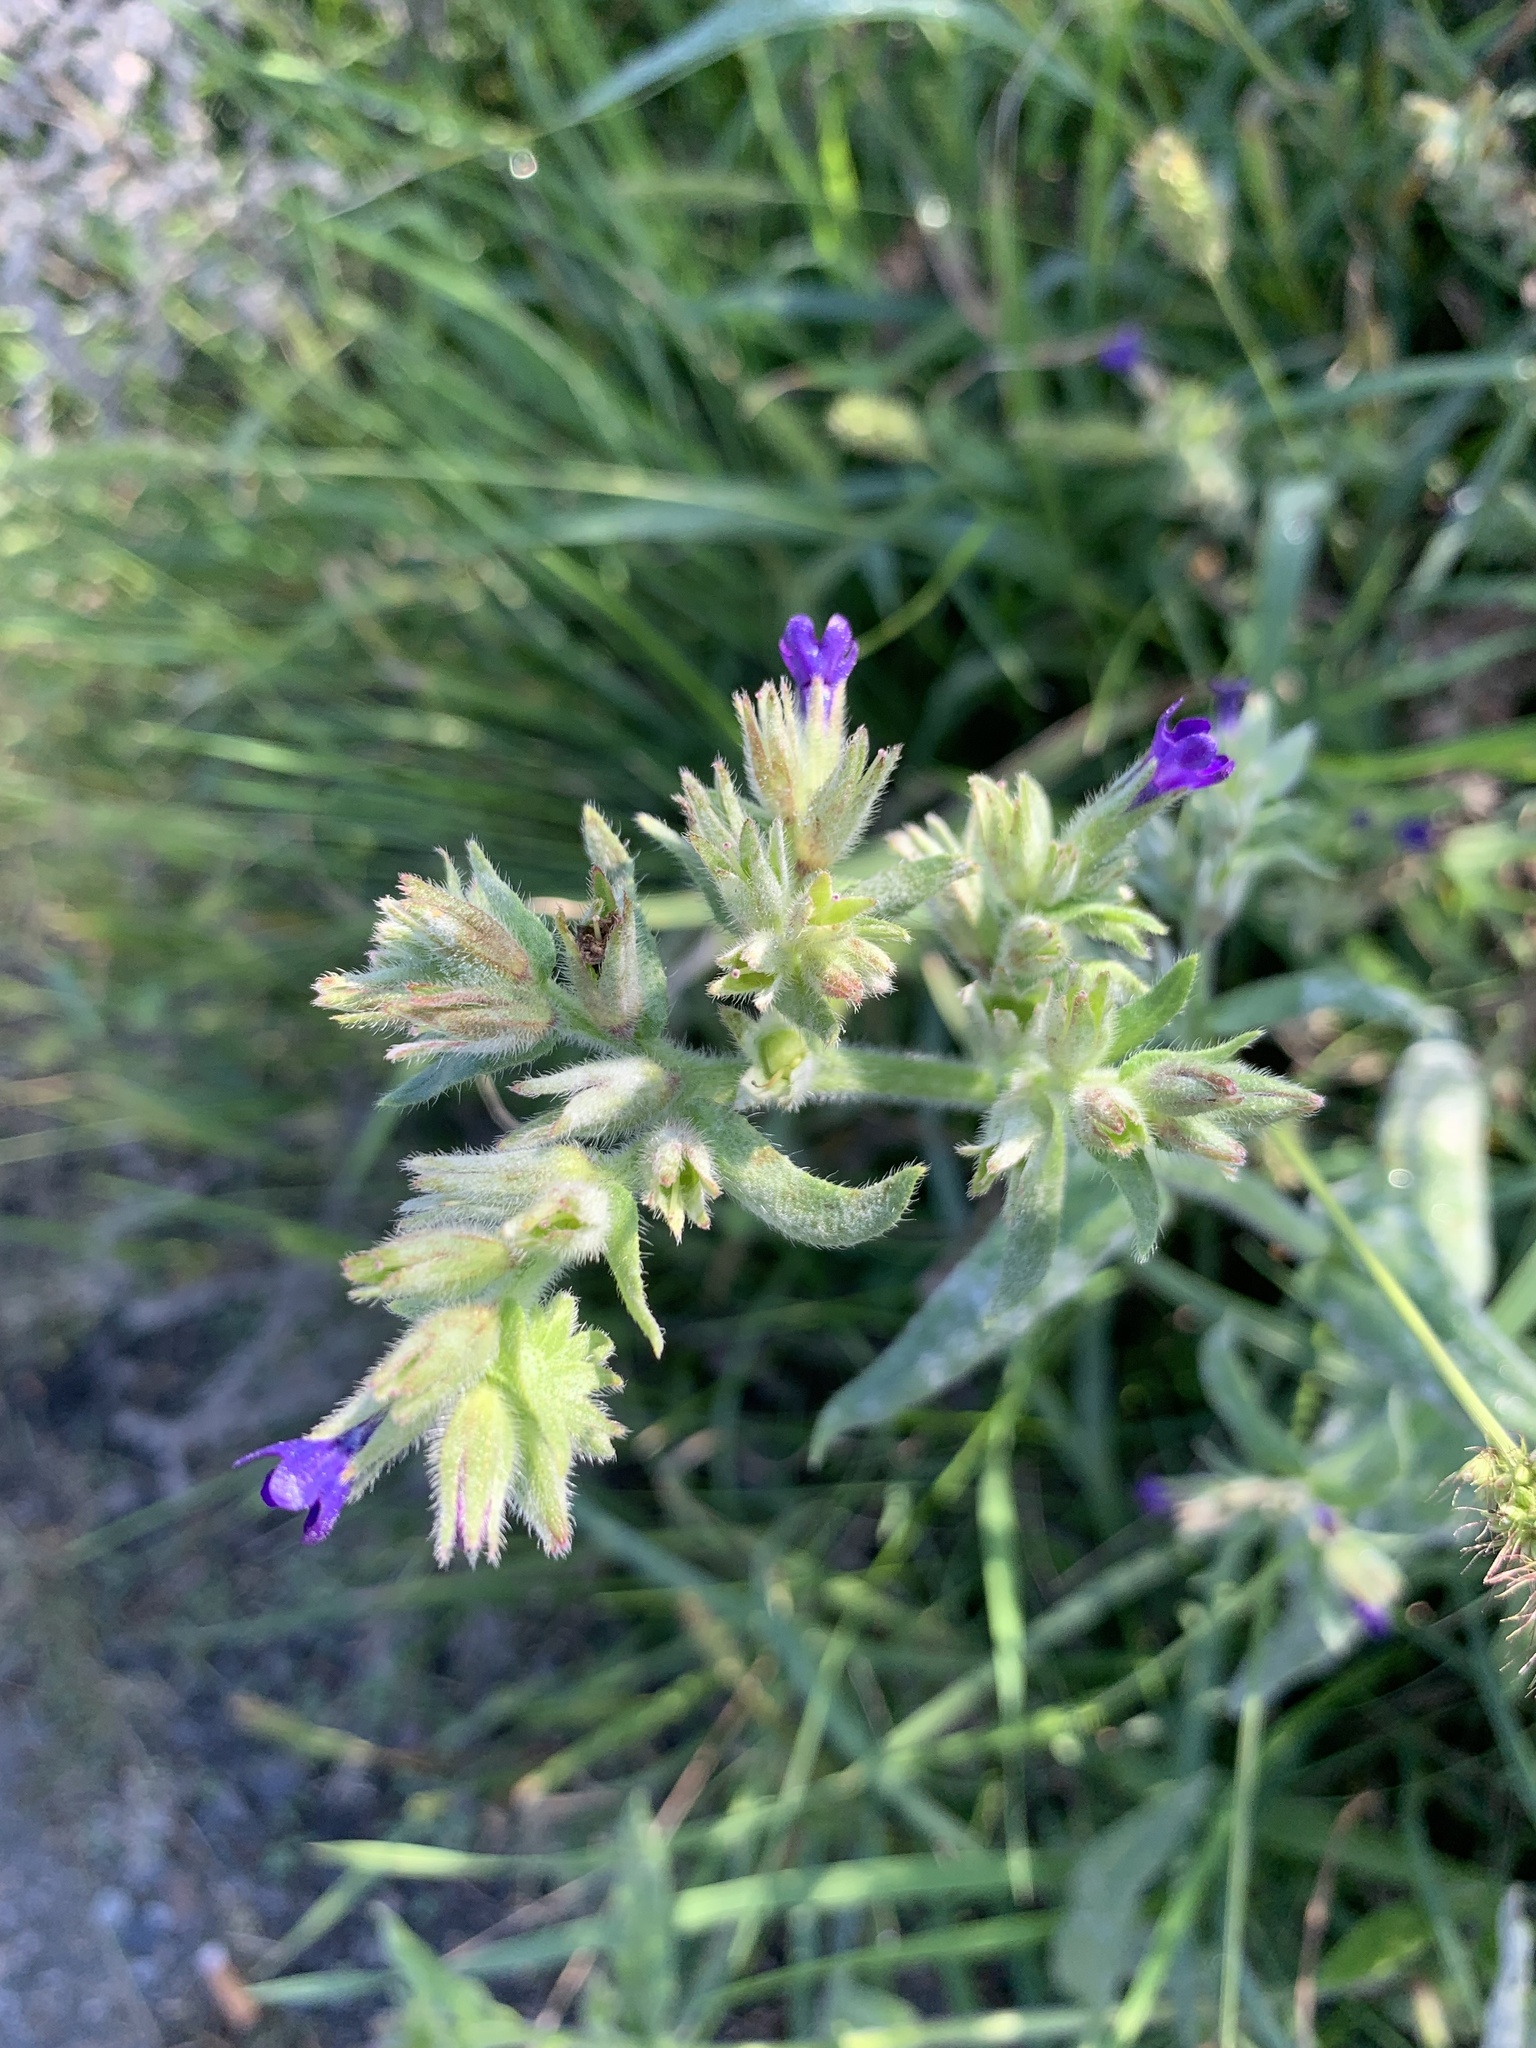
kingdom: Plantae
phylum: Tracheophyta
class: Magnoliopsida
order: Boraginales
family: Boraginaceae
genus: Anchusa
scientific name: Anchusa officinalis
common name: Alkanet
